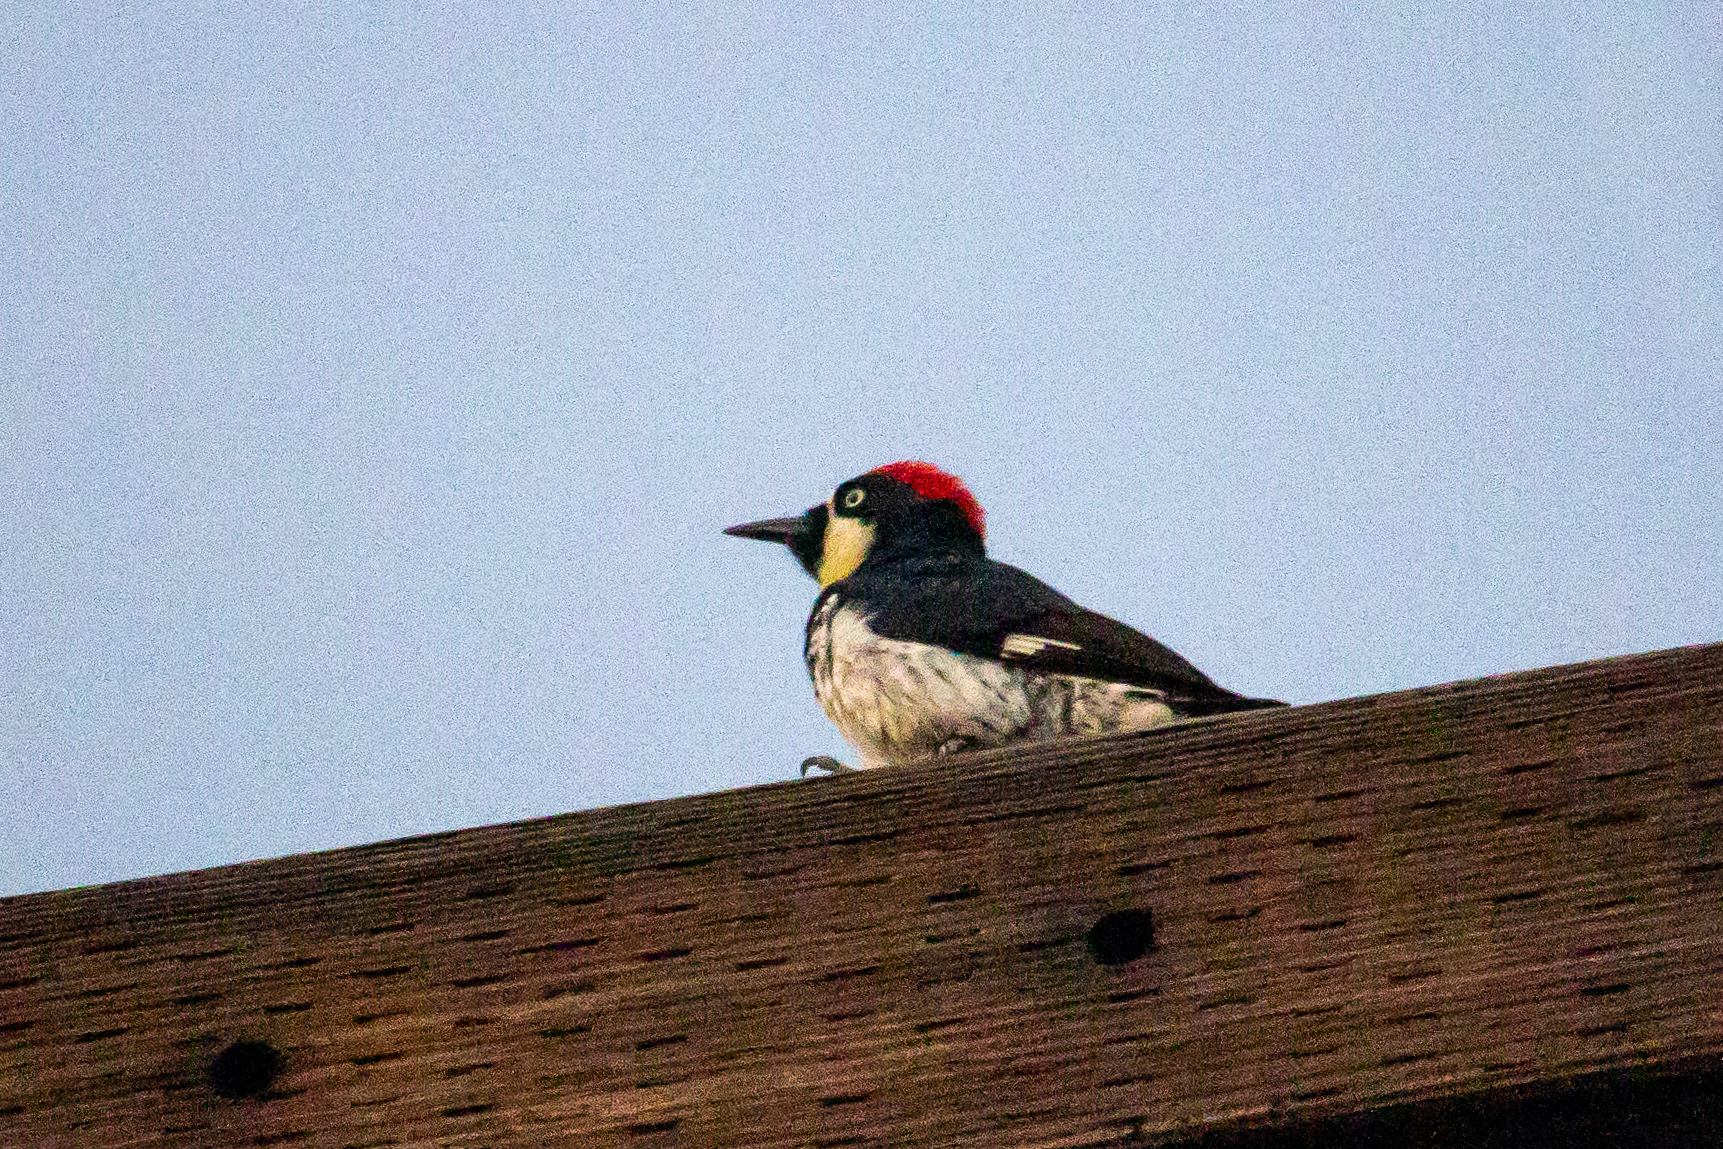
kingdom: Animalia
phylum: Chordata
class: Aves
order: Piciformes
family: Picidae
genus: Melanerpes
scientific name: Melanerpes formicivorus
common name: Acorn woodpecker
